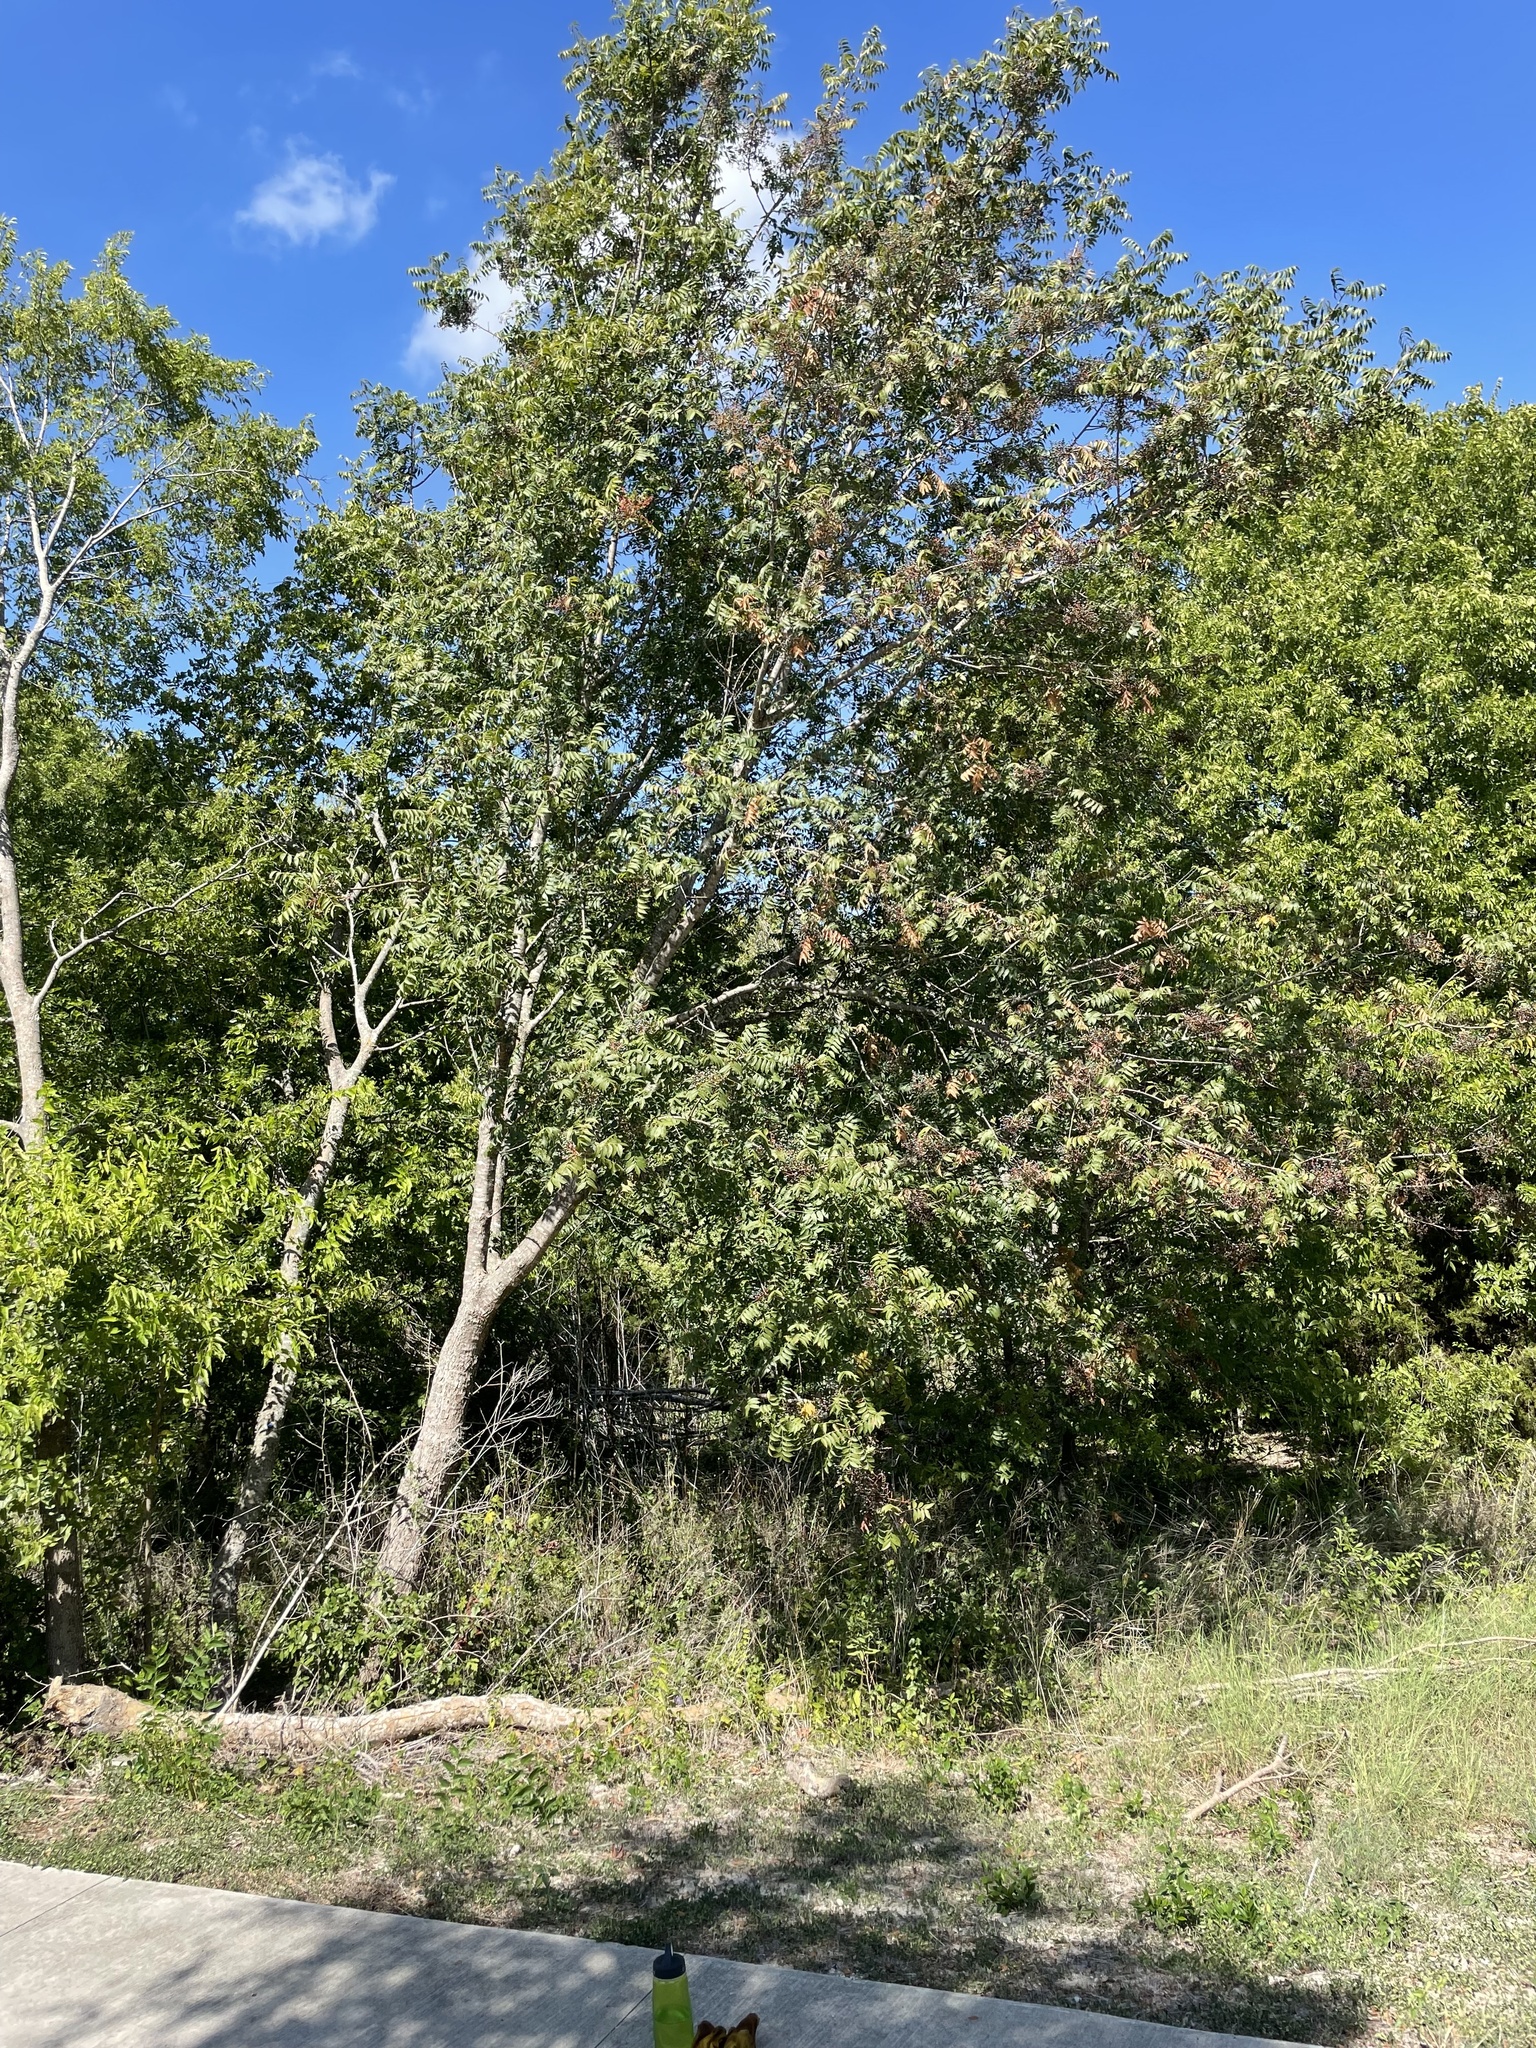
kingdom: Plantae
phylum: Tracheophyta
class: Magnoliopsida
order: Sapindales
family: Anacardiaceae
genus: Pistacia
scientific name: Pistacia chinensis
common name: Chinese pistache
